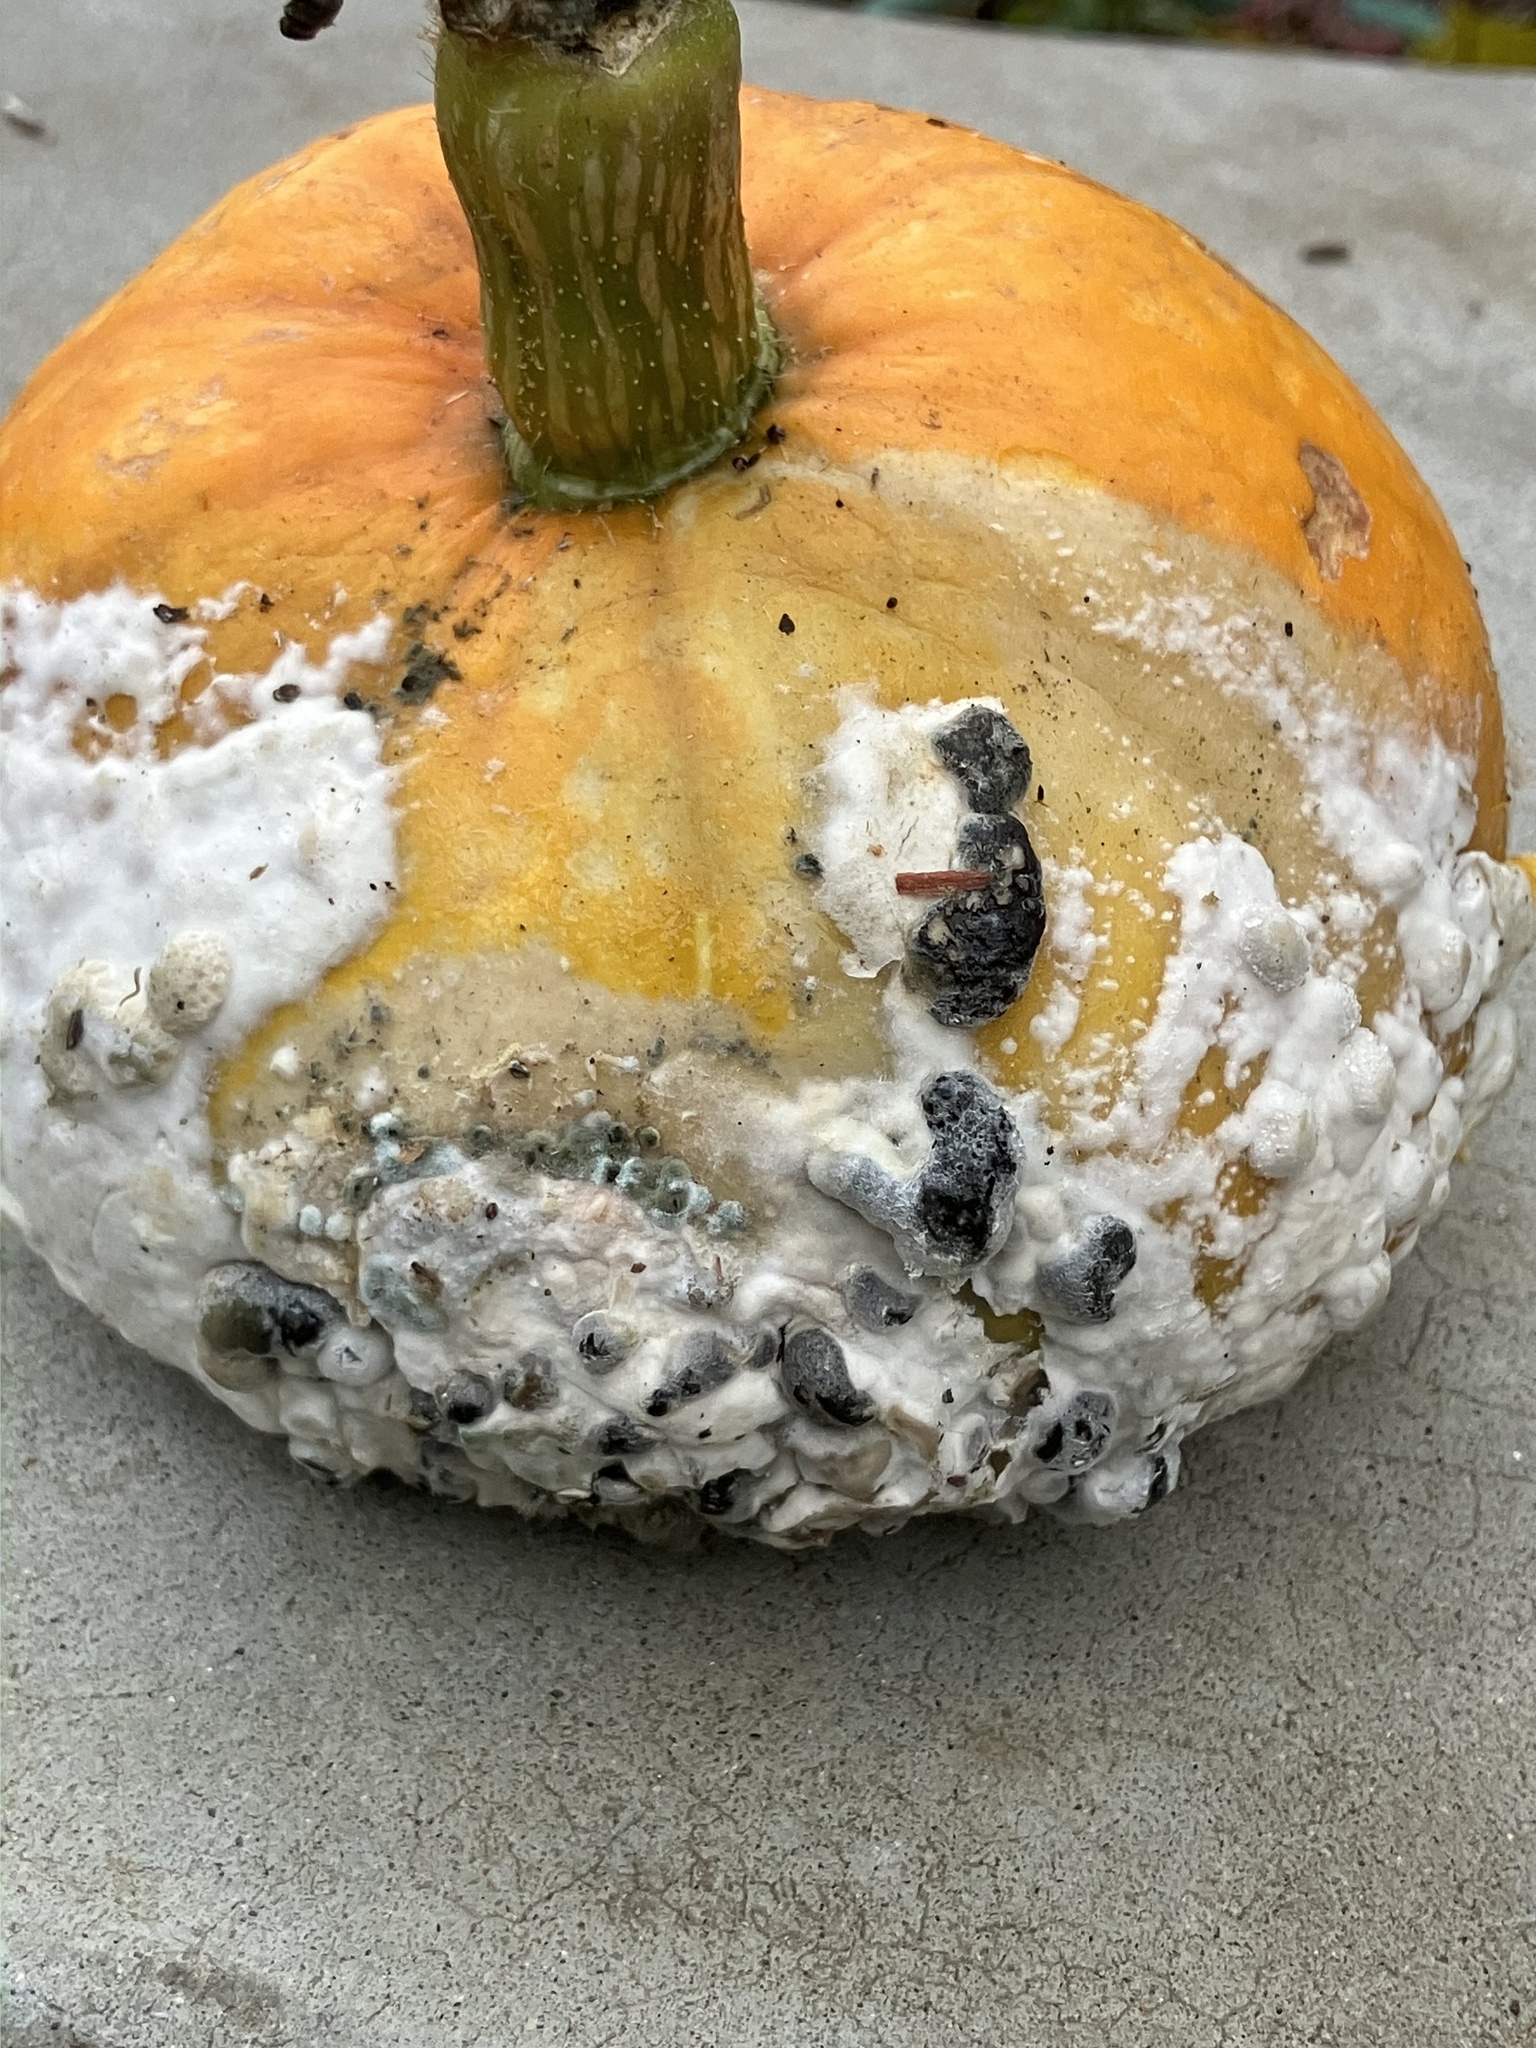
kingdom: Fungi
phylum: Ascomycota
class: Leotiomycetes
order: Helotiales
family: Sclerotiniaceae
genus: Sclerotinia
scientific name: Sclerotinia sclerotiorum
